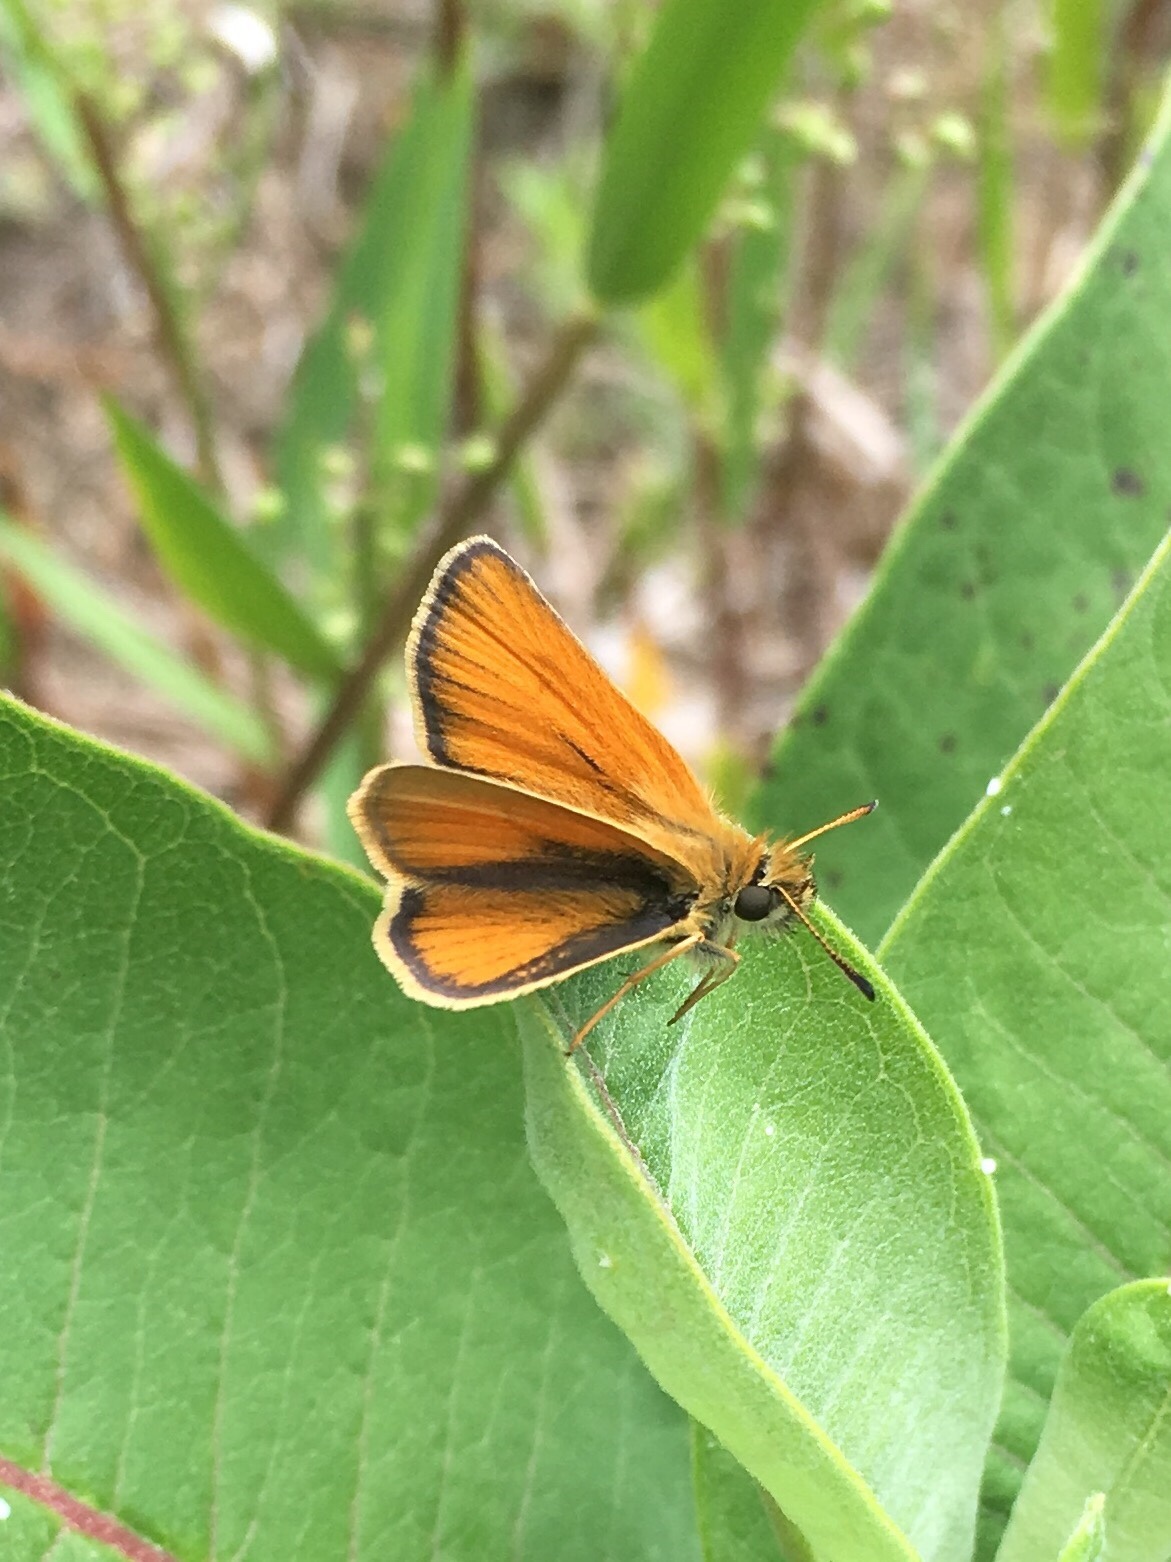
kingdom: Animalia
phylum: Arthropoda
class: Insecta
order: Lepidoptera
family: Hesperiidae
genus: Thymelicus
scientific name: Thymelicus lineola
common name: Essex skipper
